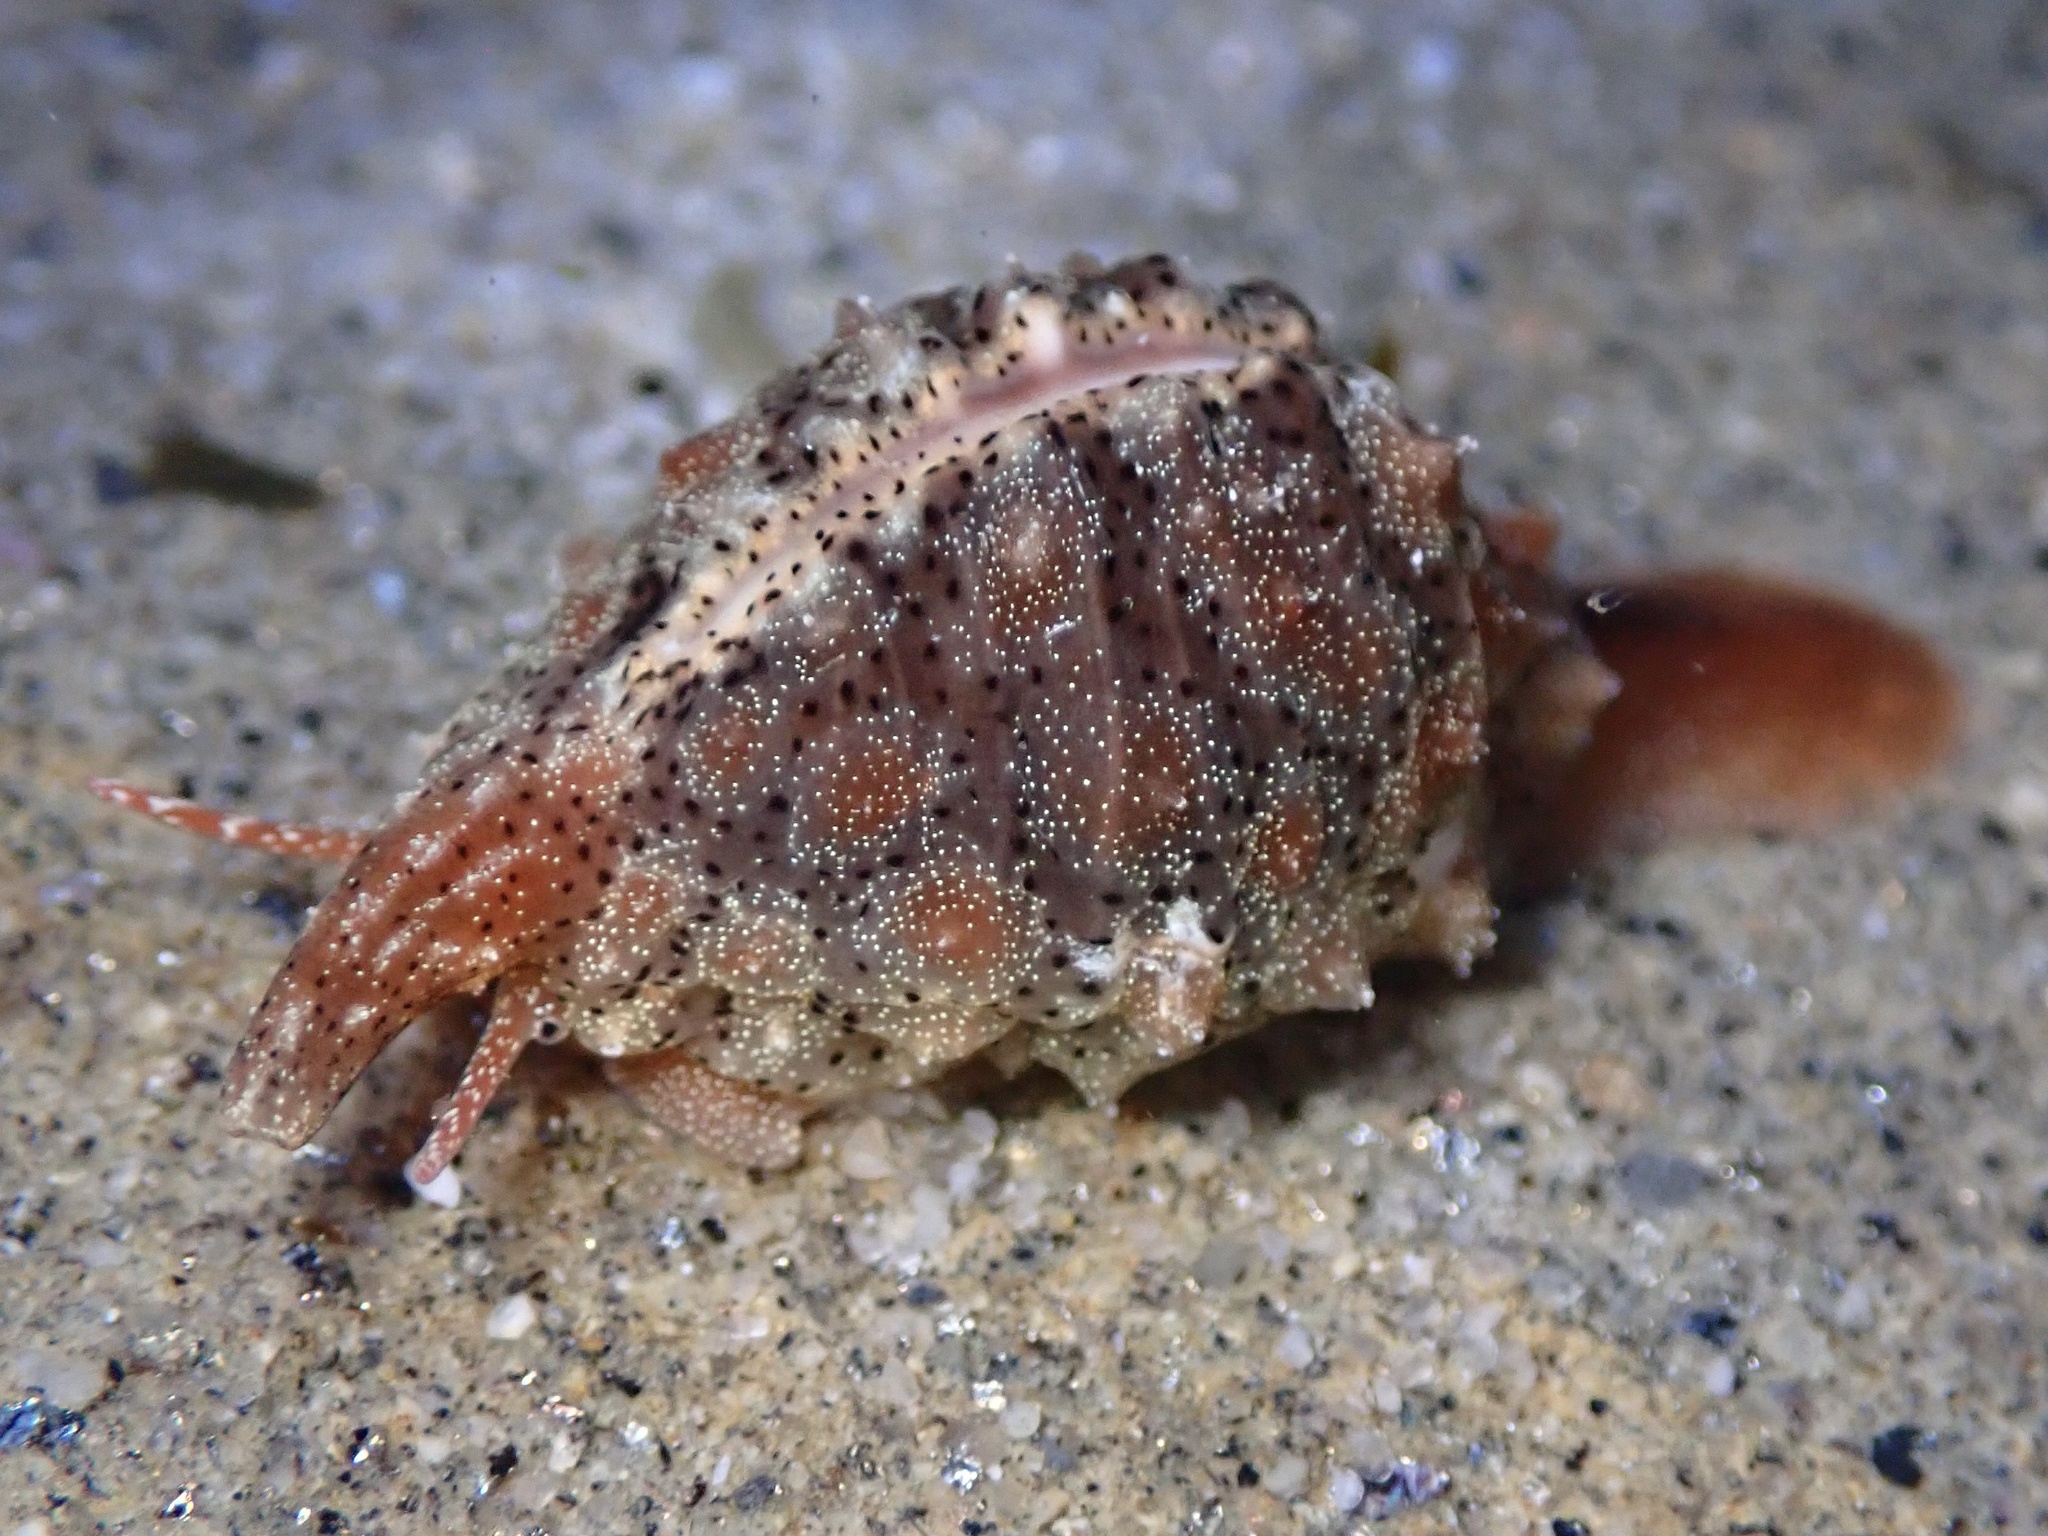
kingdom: Animalia
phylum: Mollusca
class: Gastropoda
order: Littorinimorpha
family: Triviidae
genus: Pusula
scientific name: Pusula solandri
